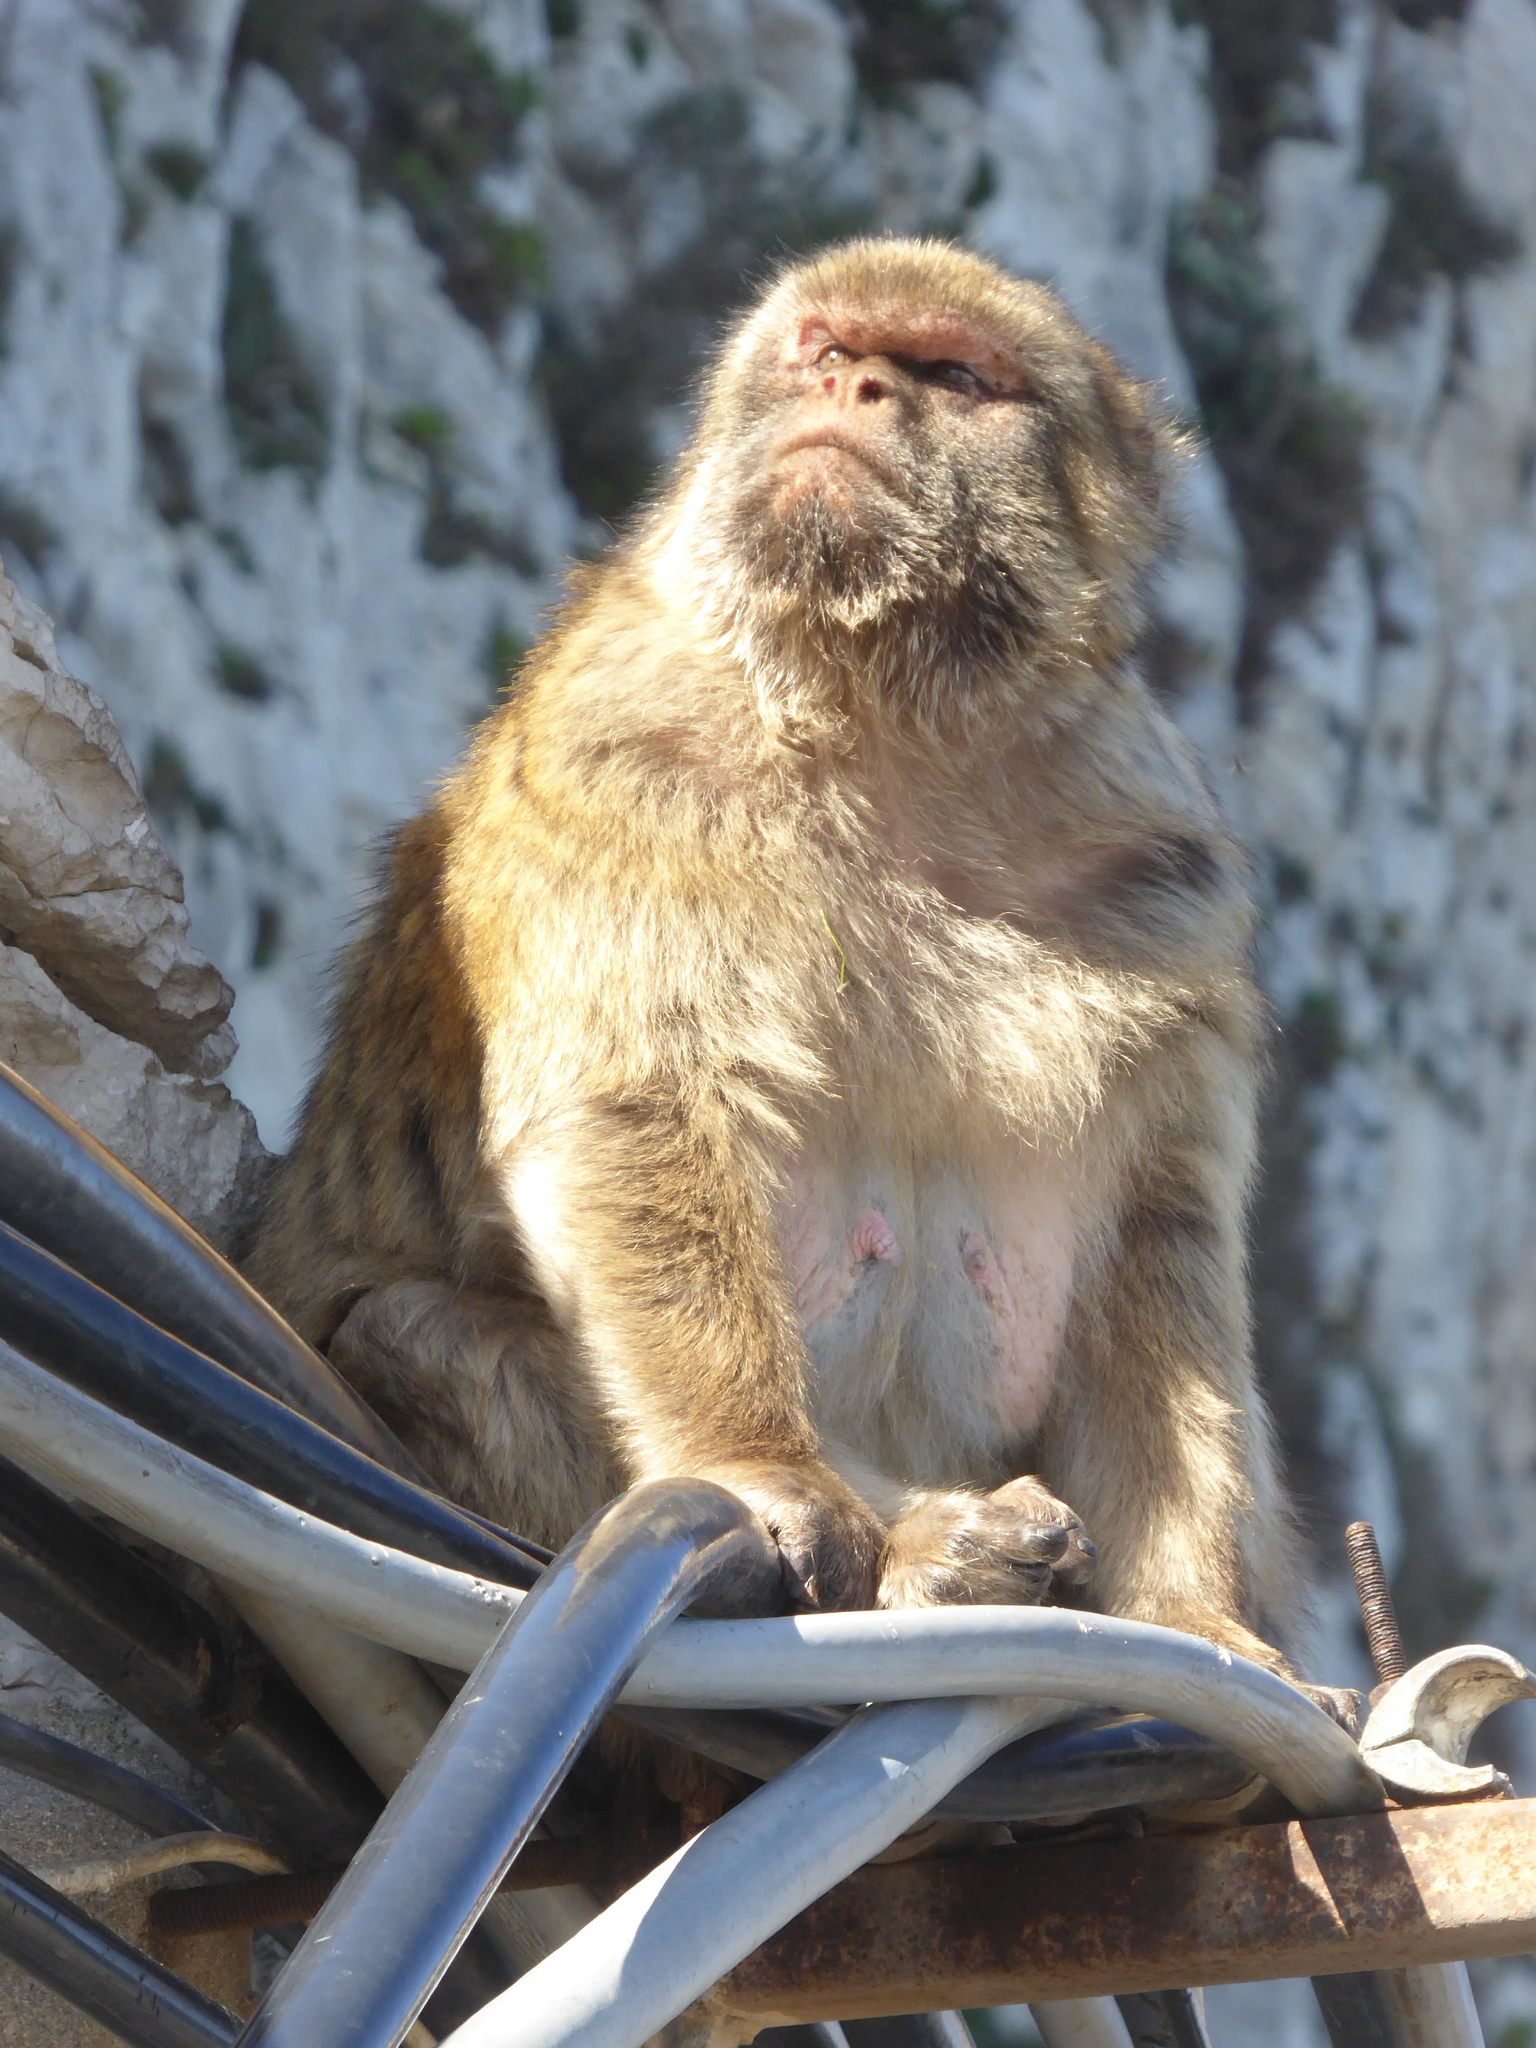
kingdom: Animalia
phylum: Chordata
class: Mammalia
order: Primates
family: Cercopithecidae
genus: Macaca
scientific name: Macaca sylvanus
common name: Barbary macaque
